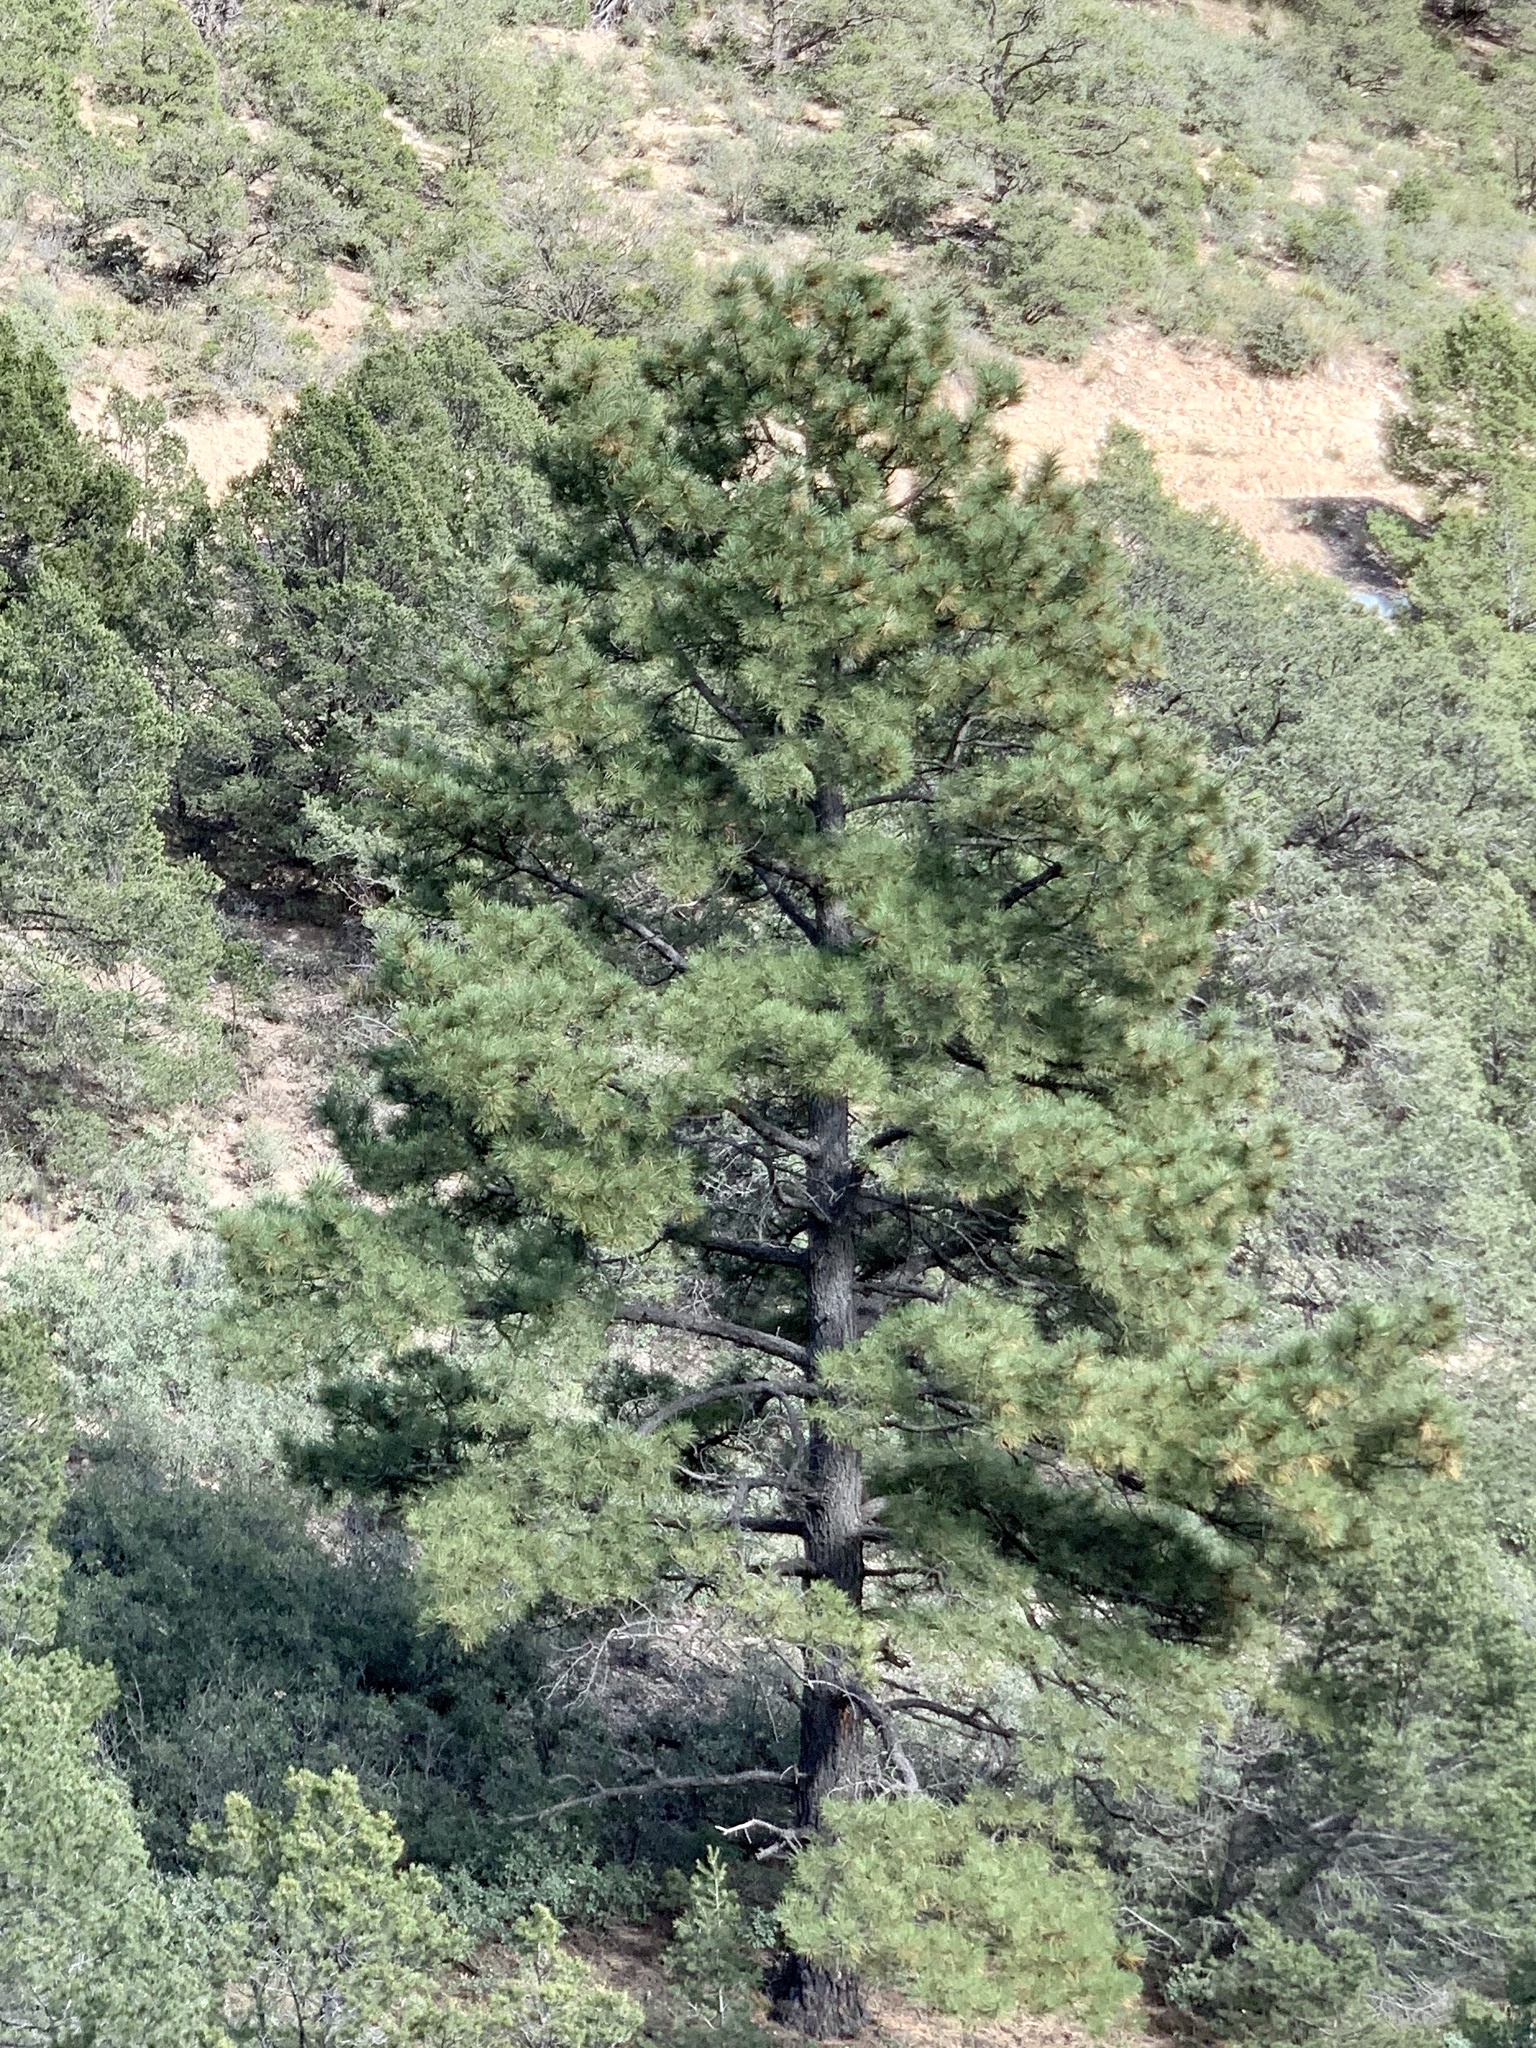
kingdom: Plantae
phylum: Tracheophyta
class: Pinopsida
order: Pinales
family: Pinaceae
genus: Pinus
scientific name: Pinus ponderosa
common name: Western yellow-pine
